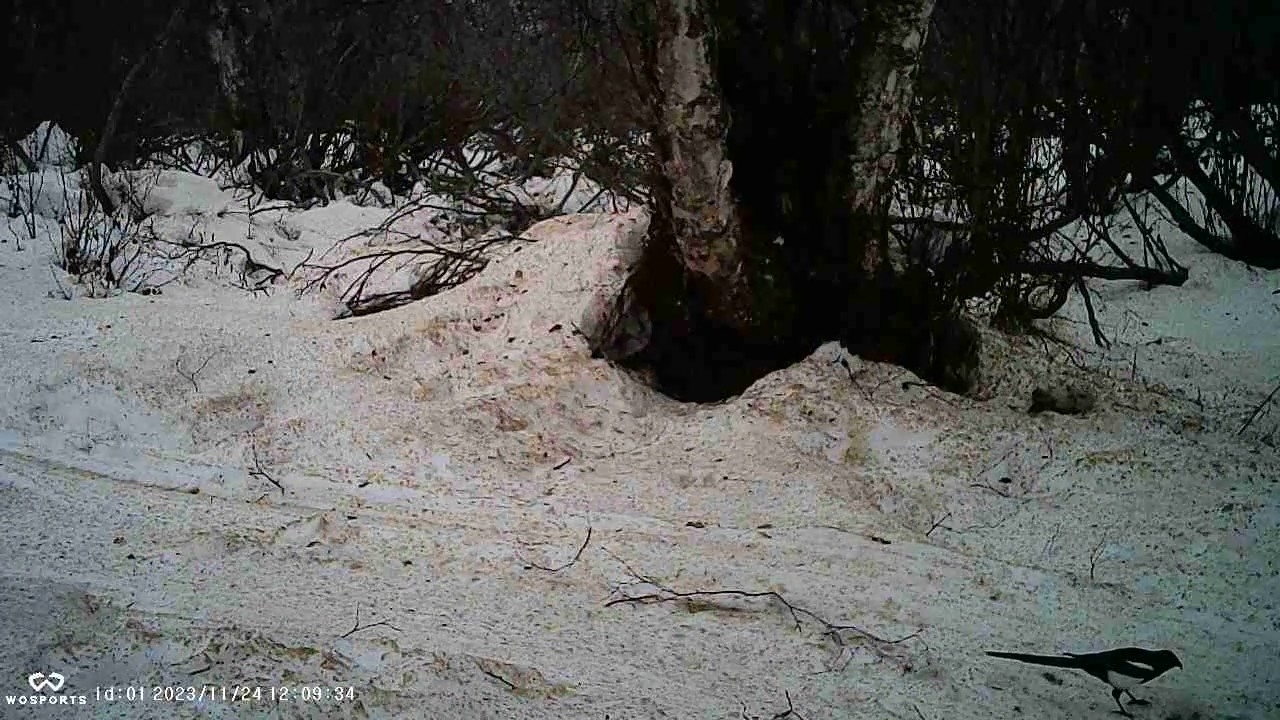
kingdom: Animalia
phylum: Chordata
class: Aves
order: Passeriformes
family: Corvidae
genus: Pica
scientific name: Pica hudsonia
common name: Black-billed magpie
